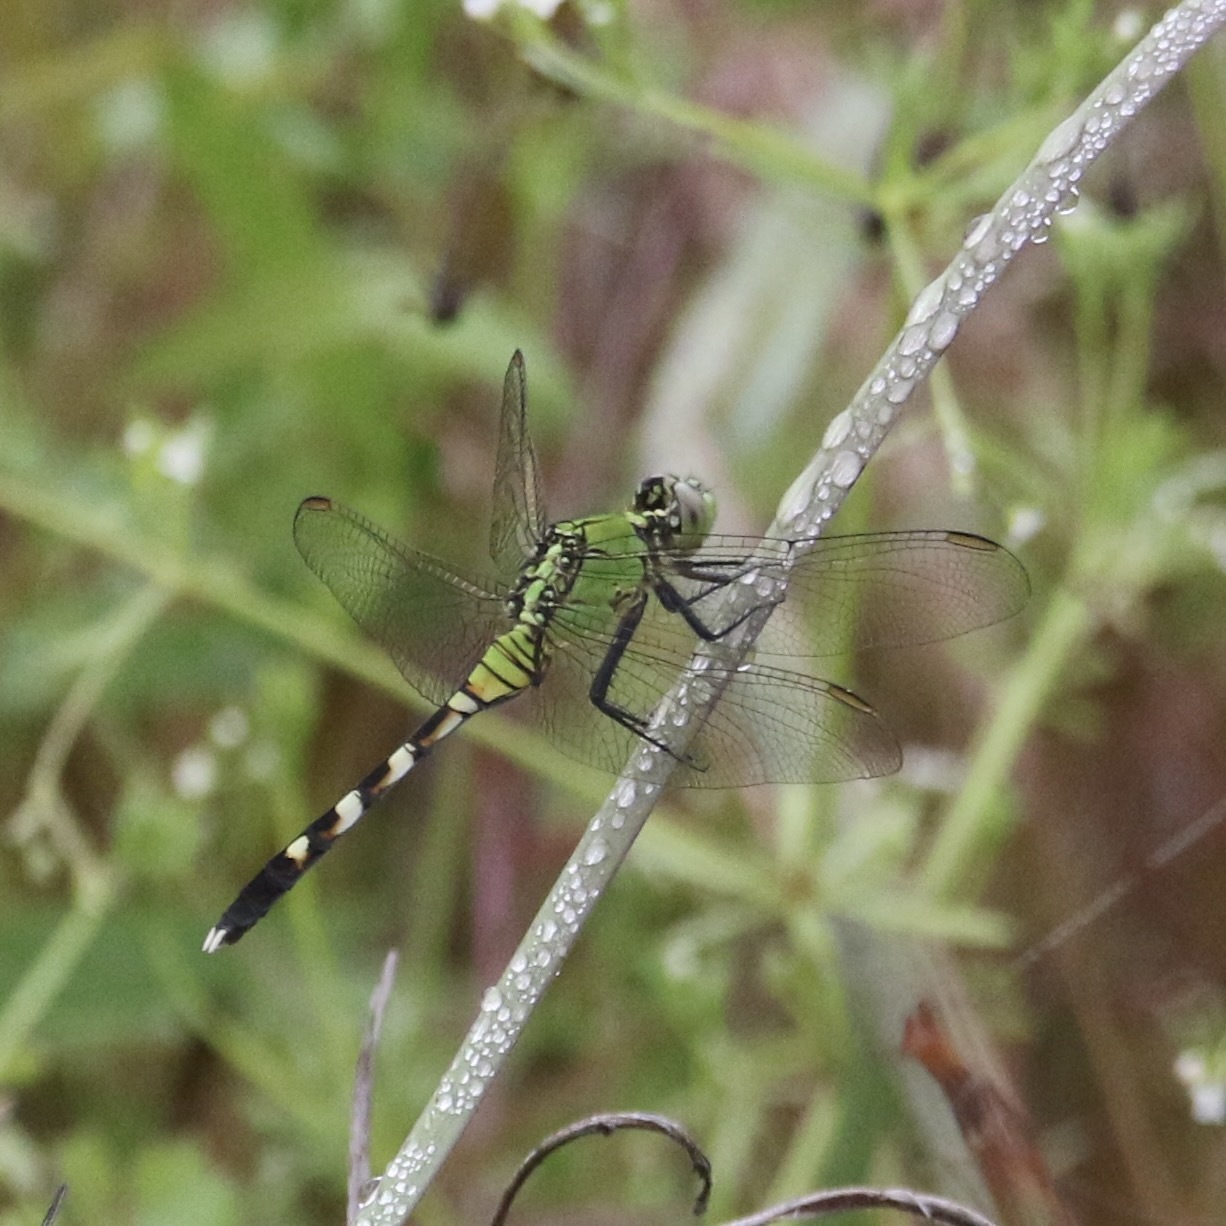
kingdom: Animalia
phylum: Arthropoda
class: Insecta
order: Odonata
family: Libellulidae
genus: Erythemis
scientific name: Erythemis simplicicollis
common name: Eastern pondhawk
